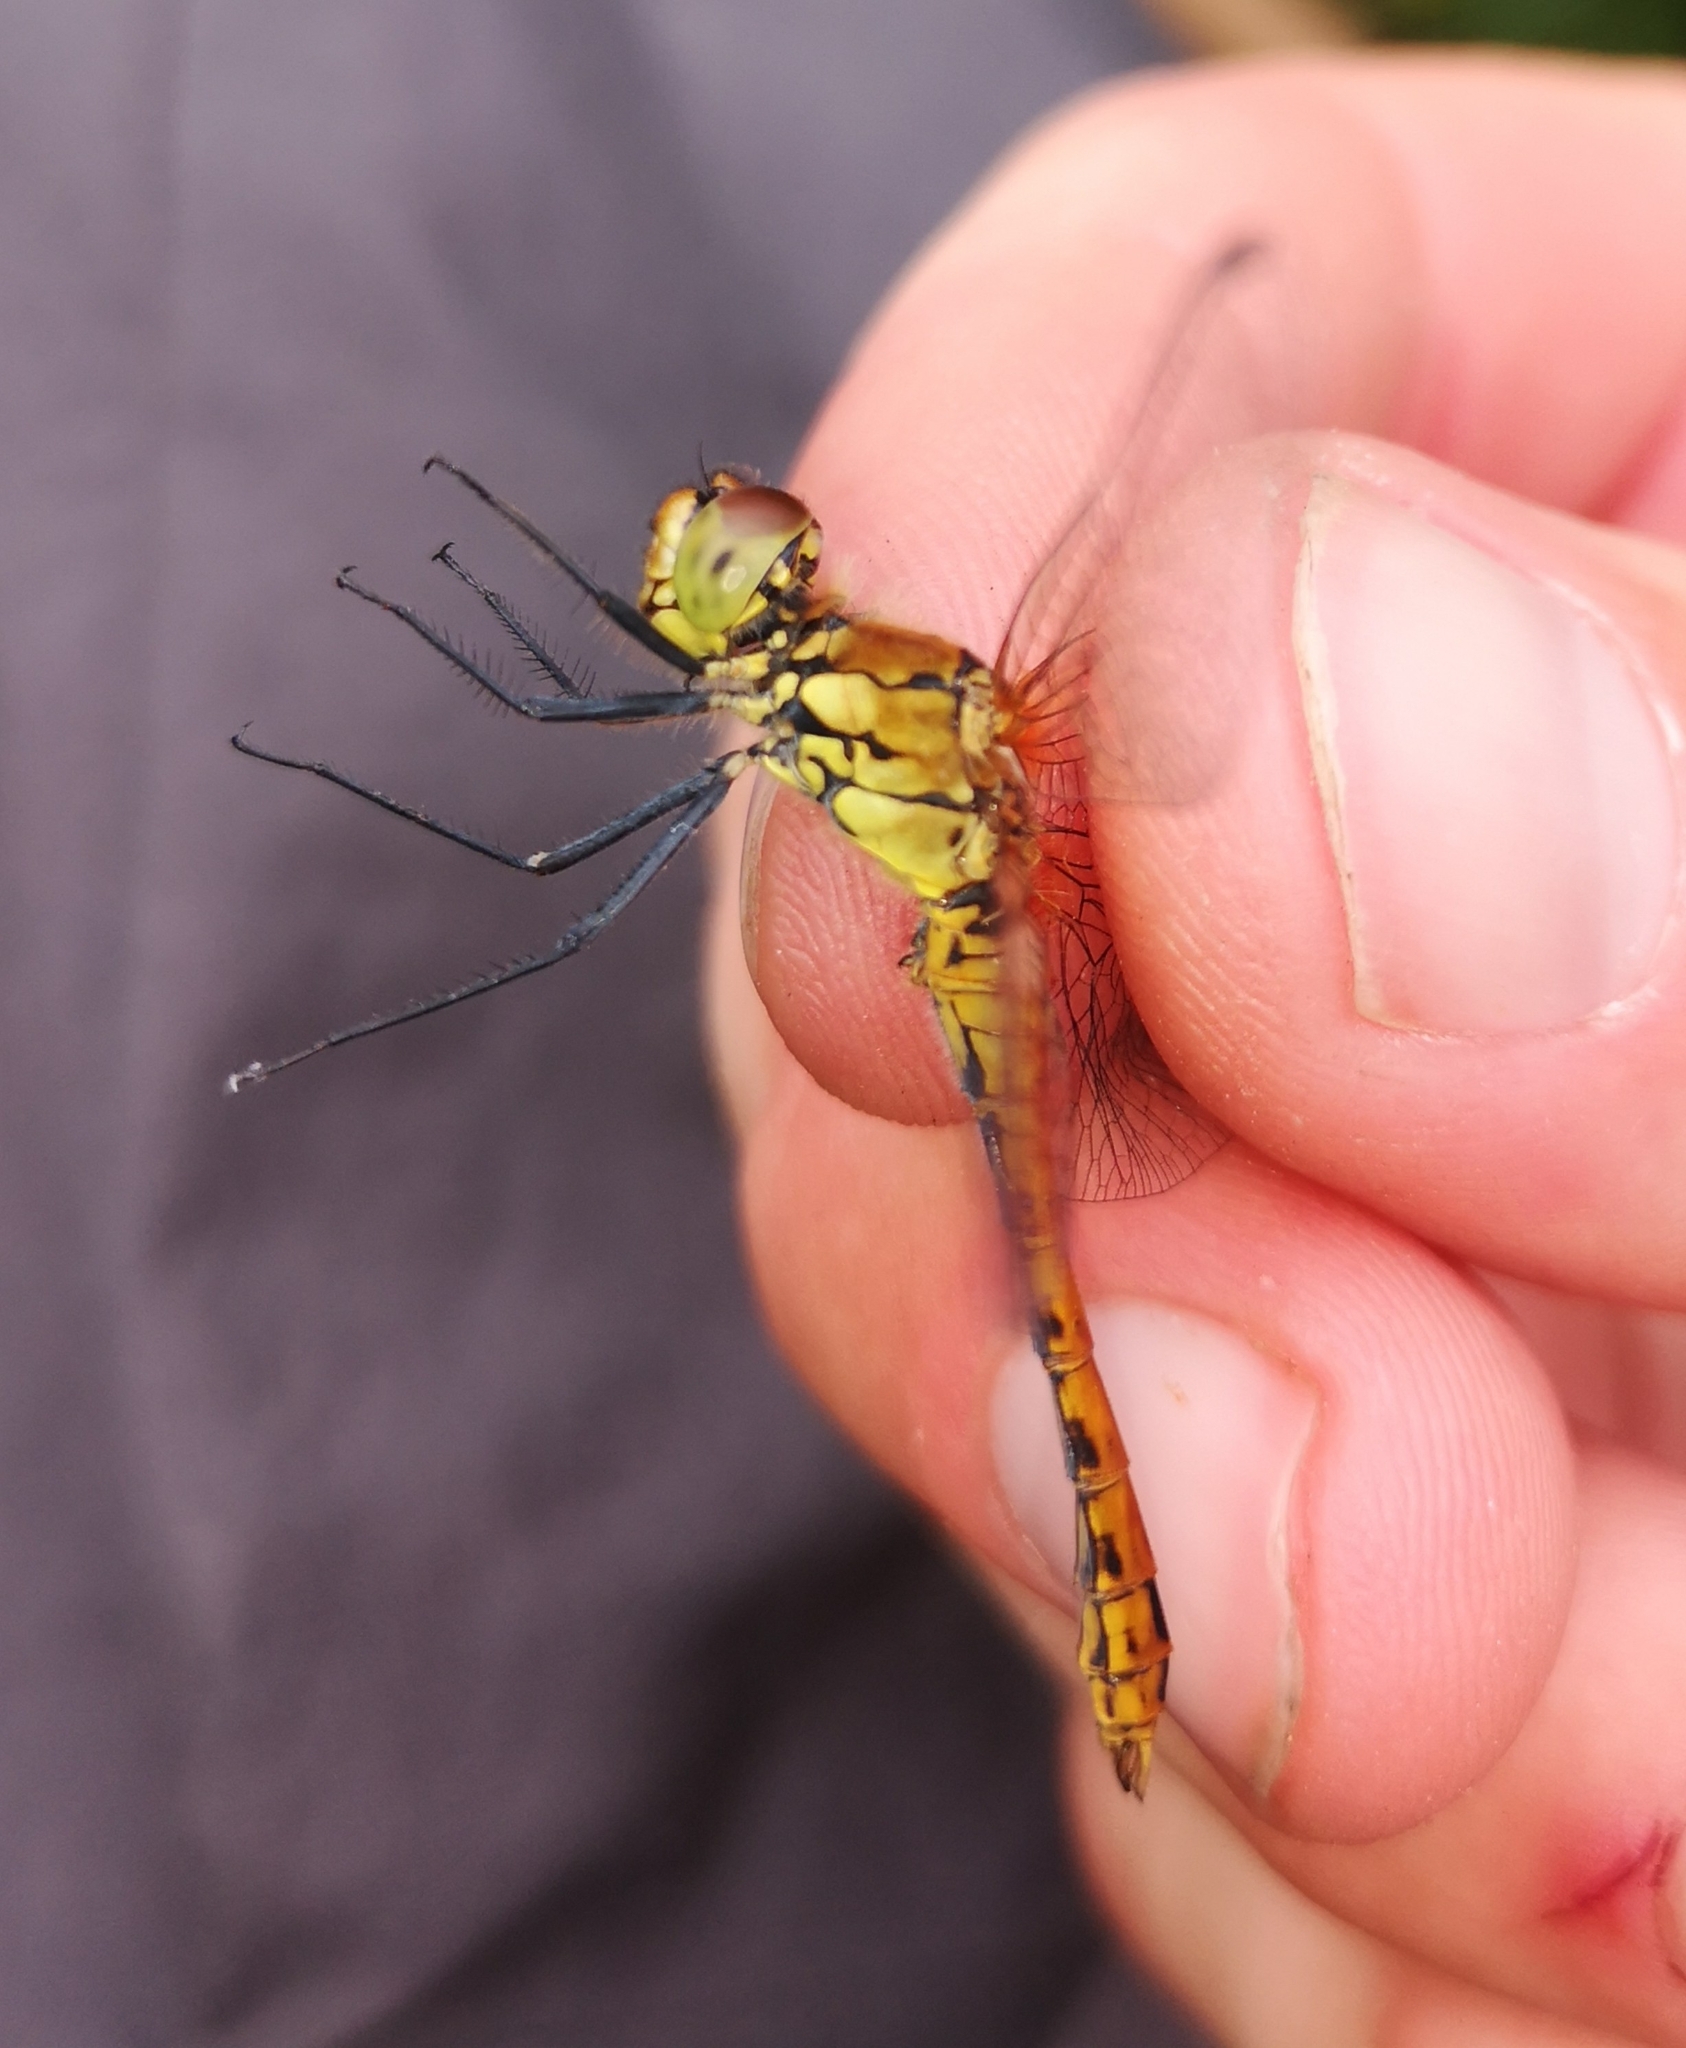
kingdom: Animalia
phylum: Arthropoda
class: Insecta
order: Odonata
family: Libellulidae
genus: Sympetrum
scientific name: Sympetrum sanguineum
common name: Ruddy darter
